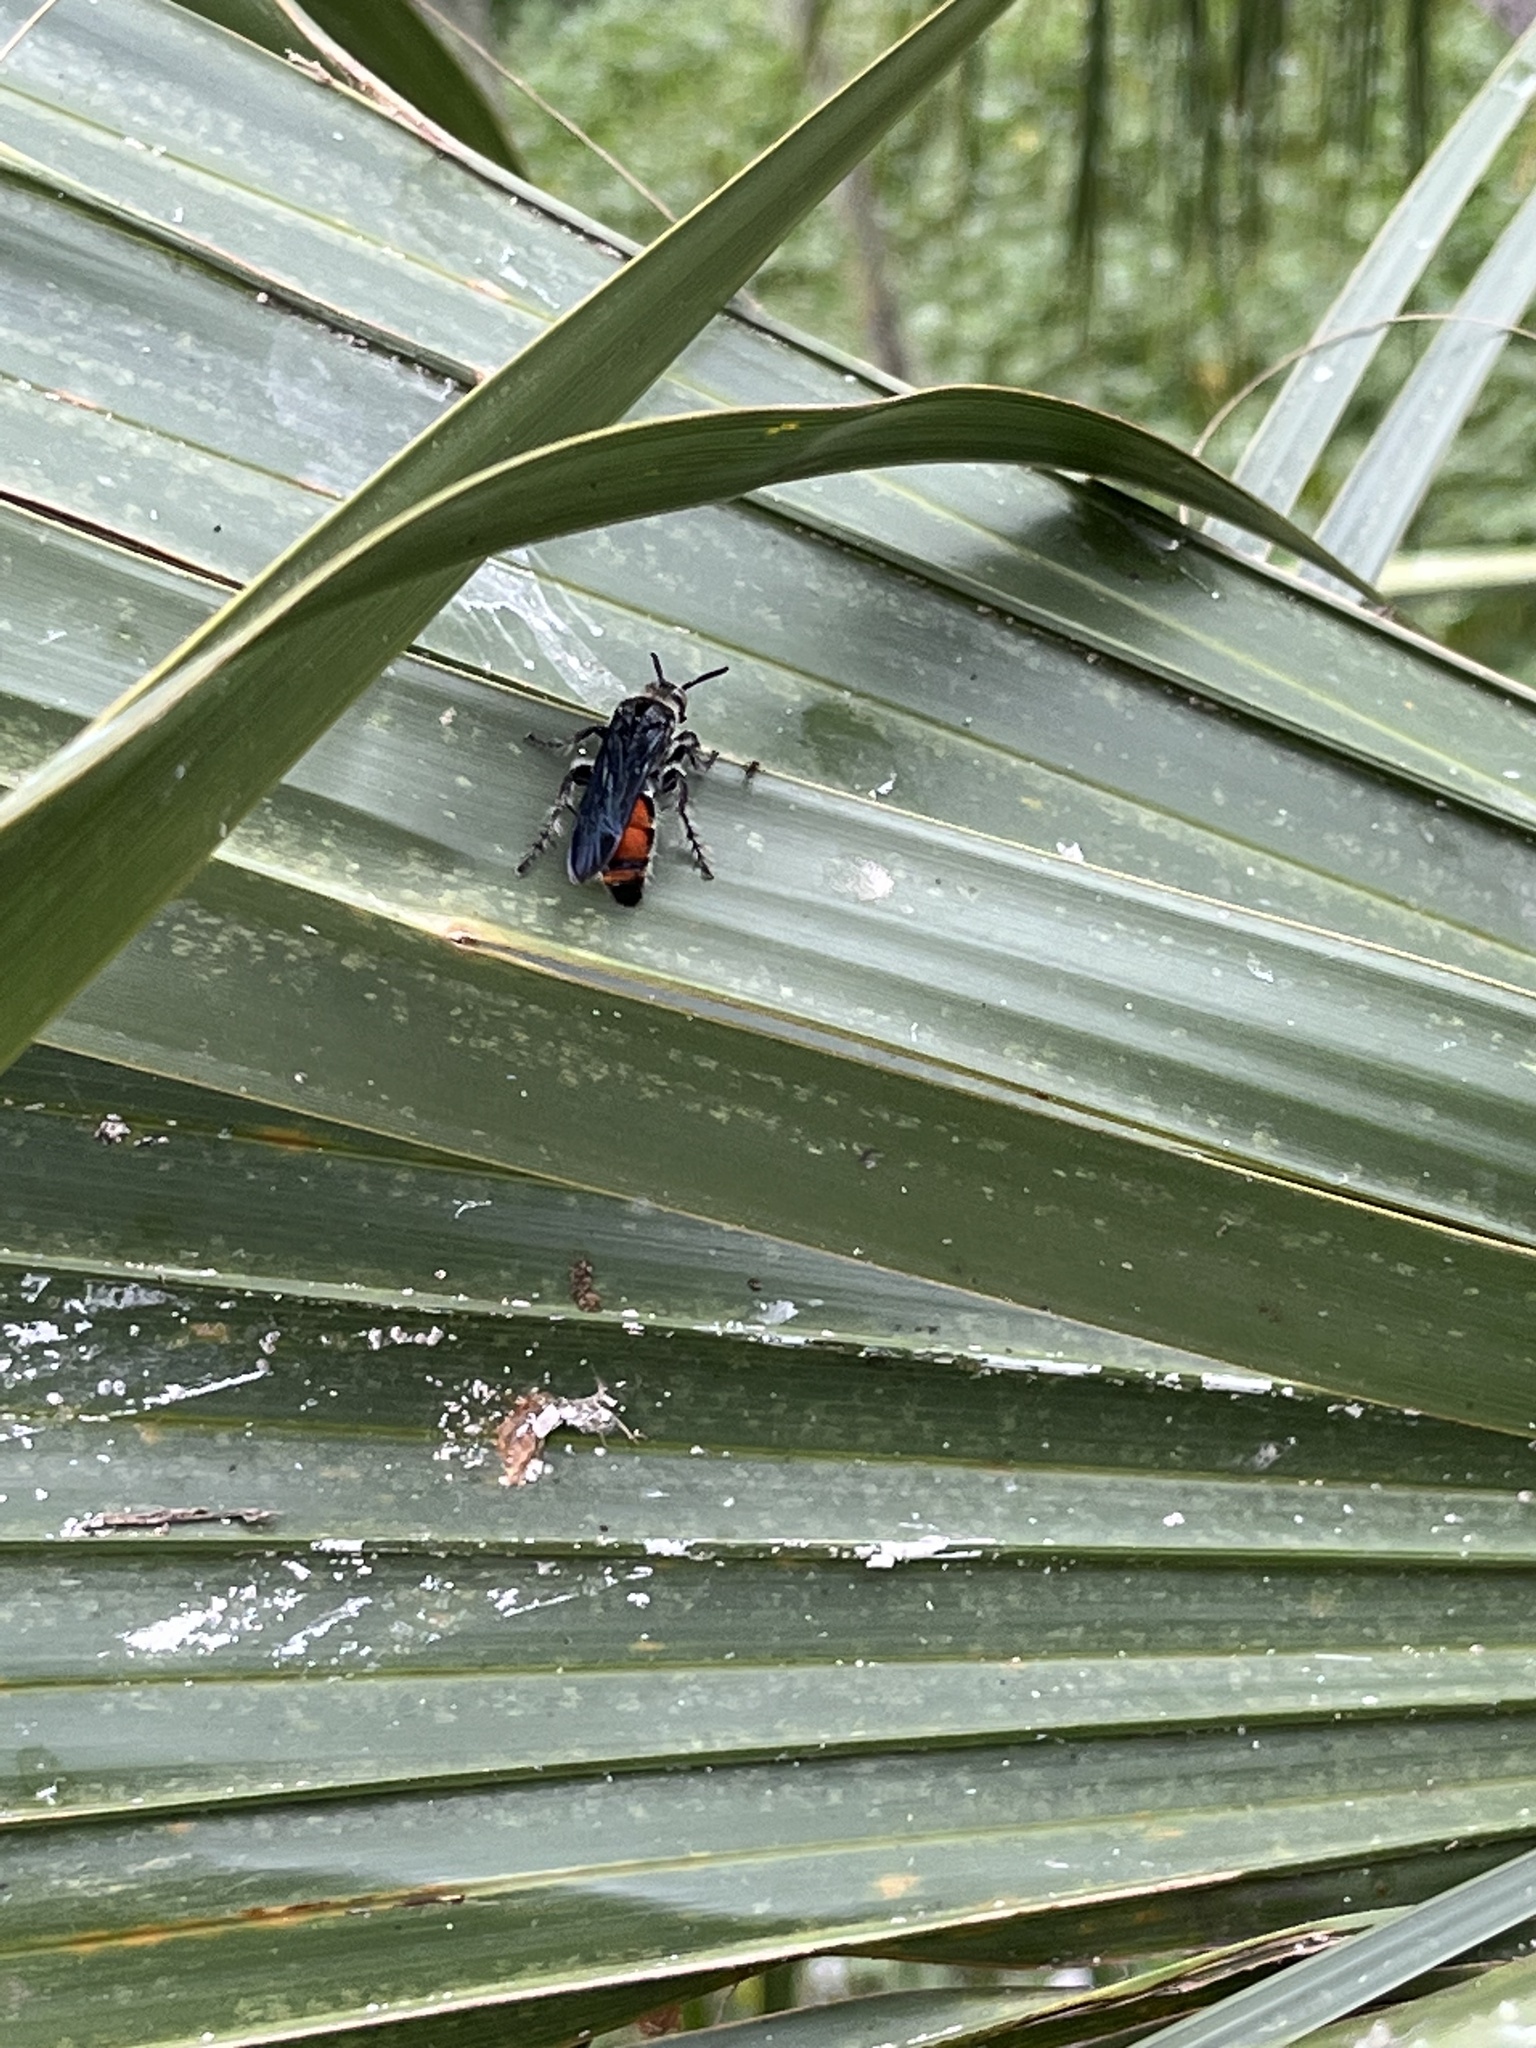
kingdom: Animalia
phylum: Arthropoda
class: Insecta
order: Hymenoptera
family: Scoliidae
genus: Dielis
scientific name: Dielis dorsata
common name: Scoliid wasp
